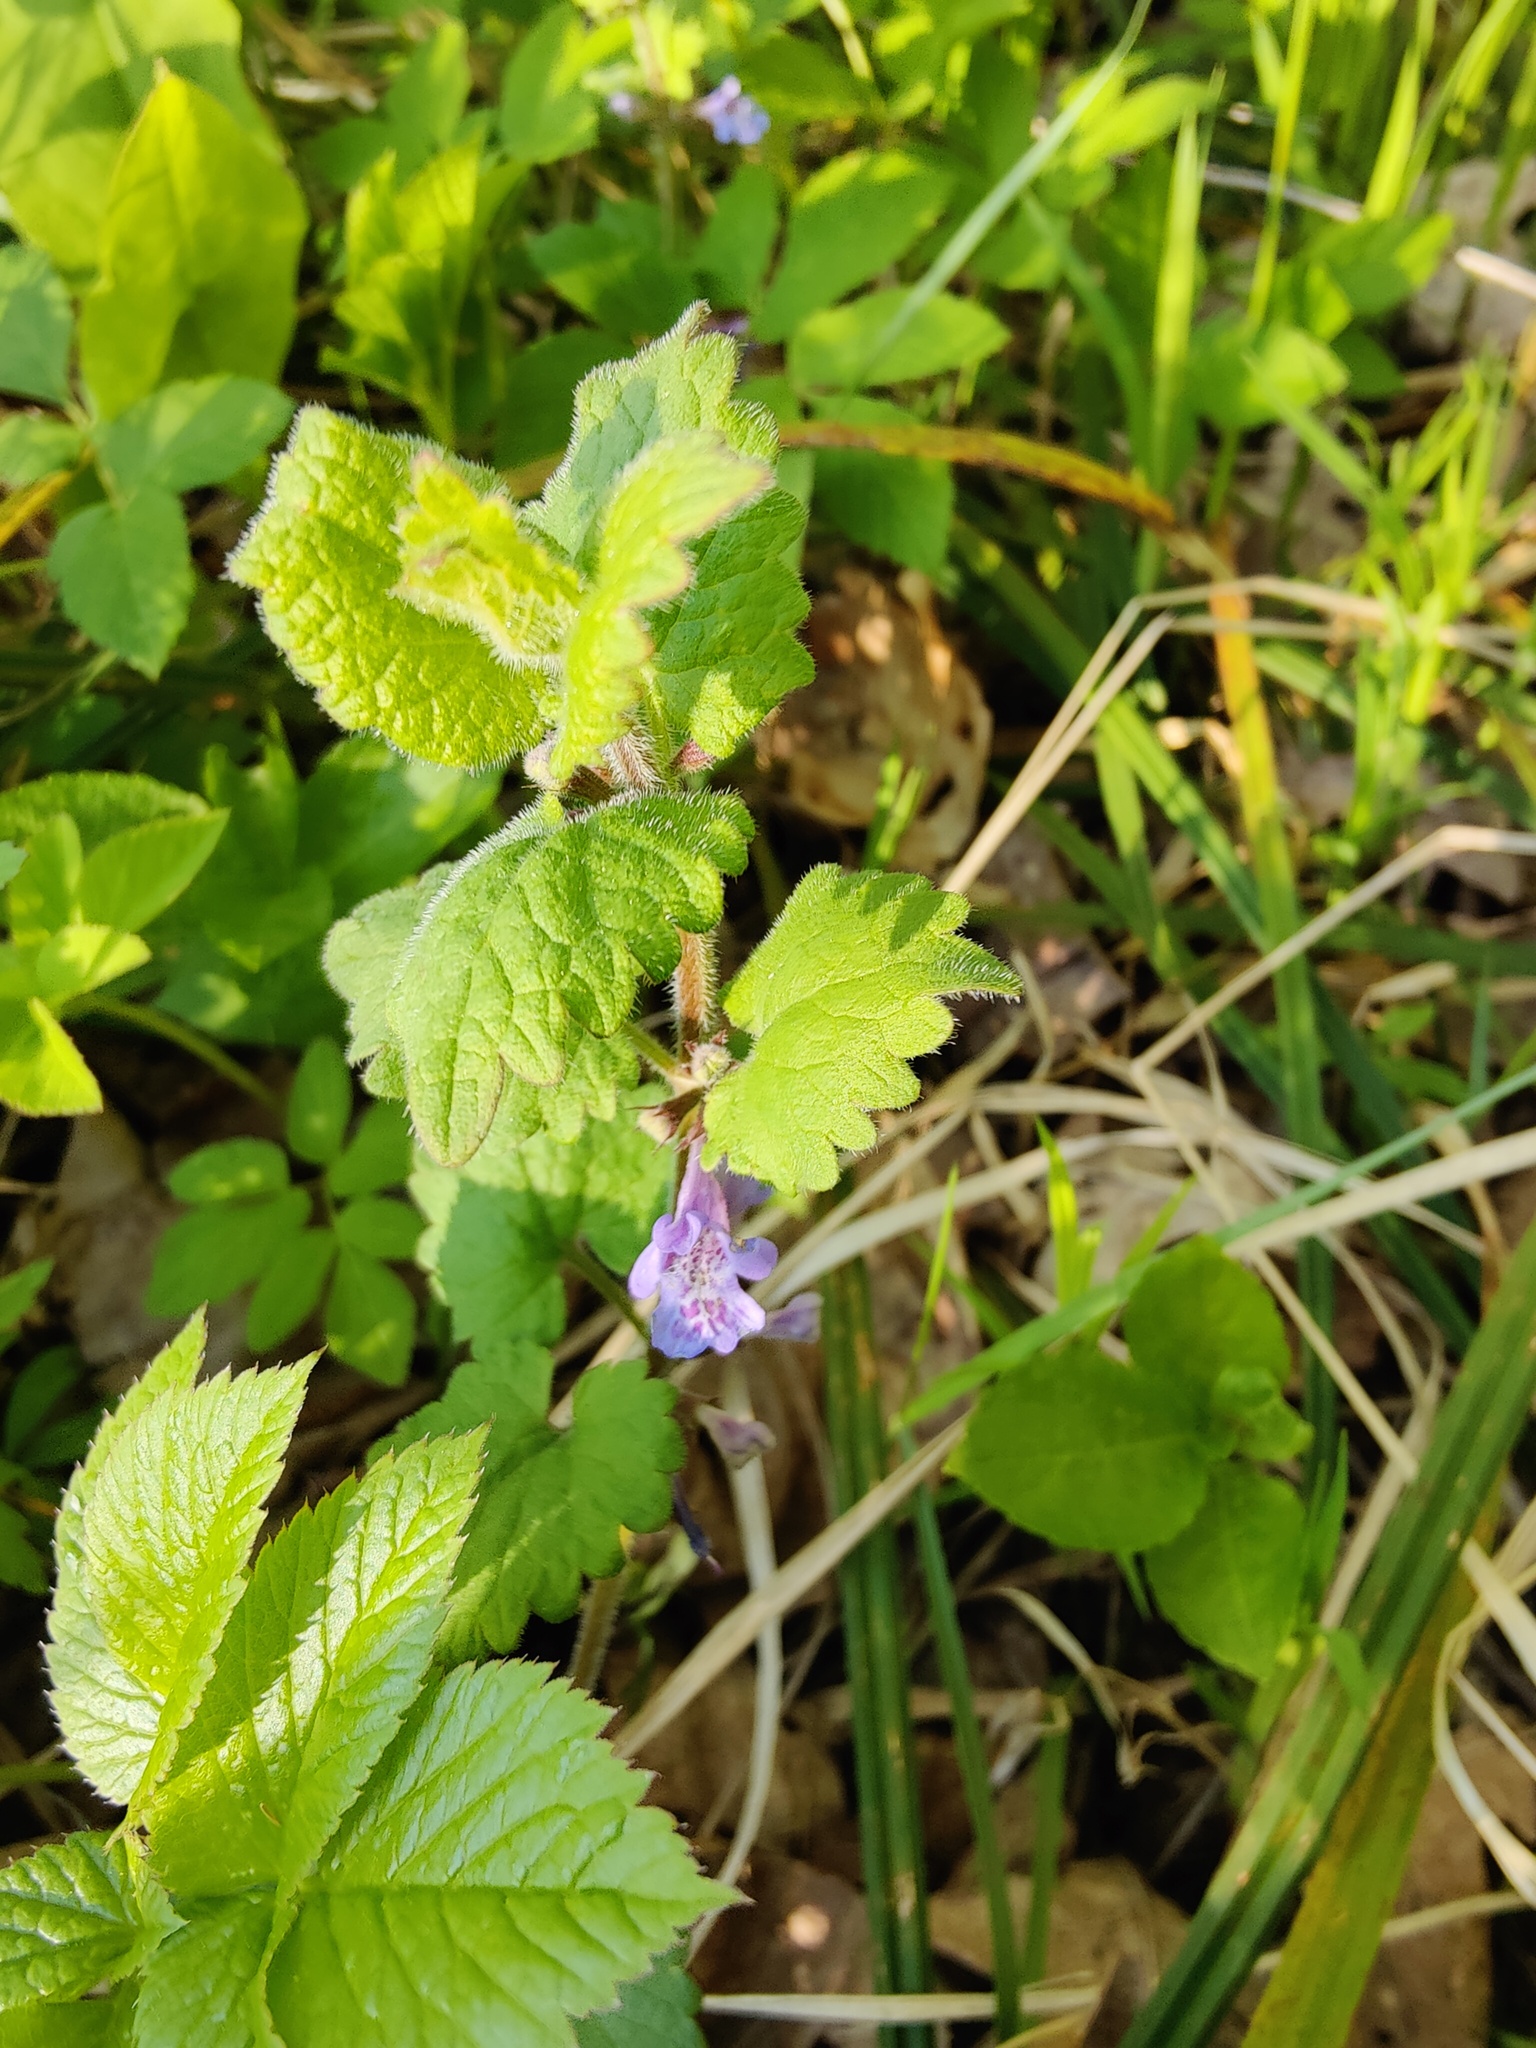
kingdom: Plantae
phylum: Tracheophyta
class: Magnoliopsida
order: Lamiales
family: Lamiaceae
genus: Glechoma
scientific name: Glechoma hederacea
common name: Ground ivy
